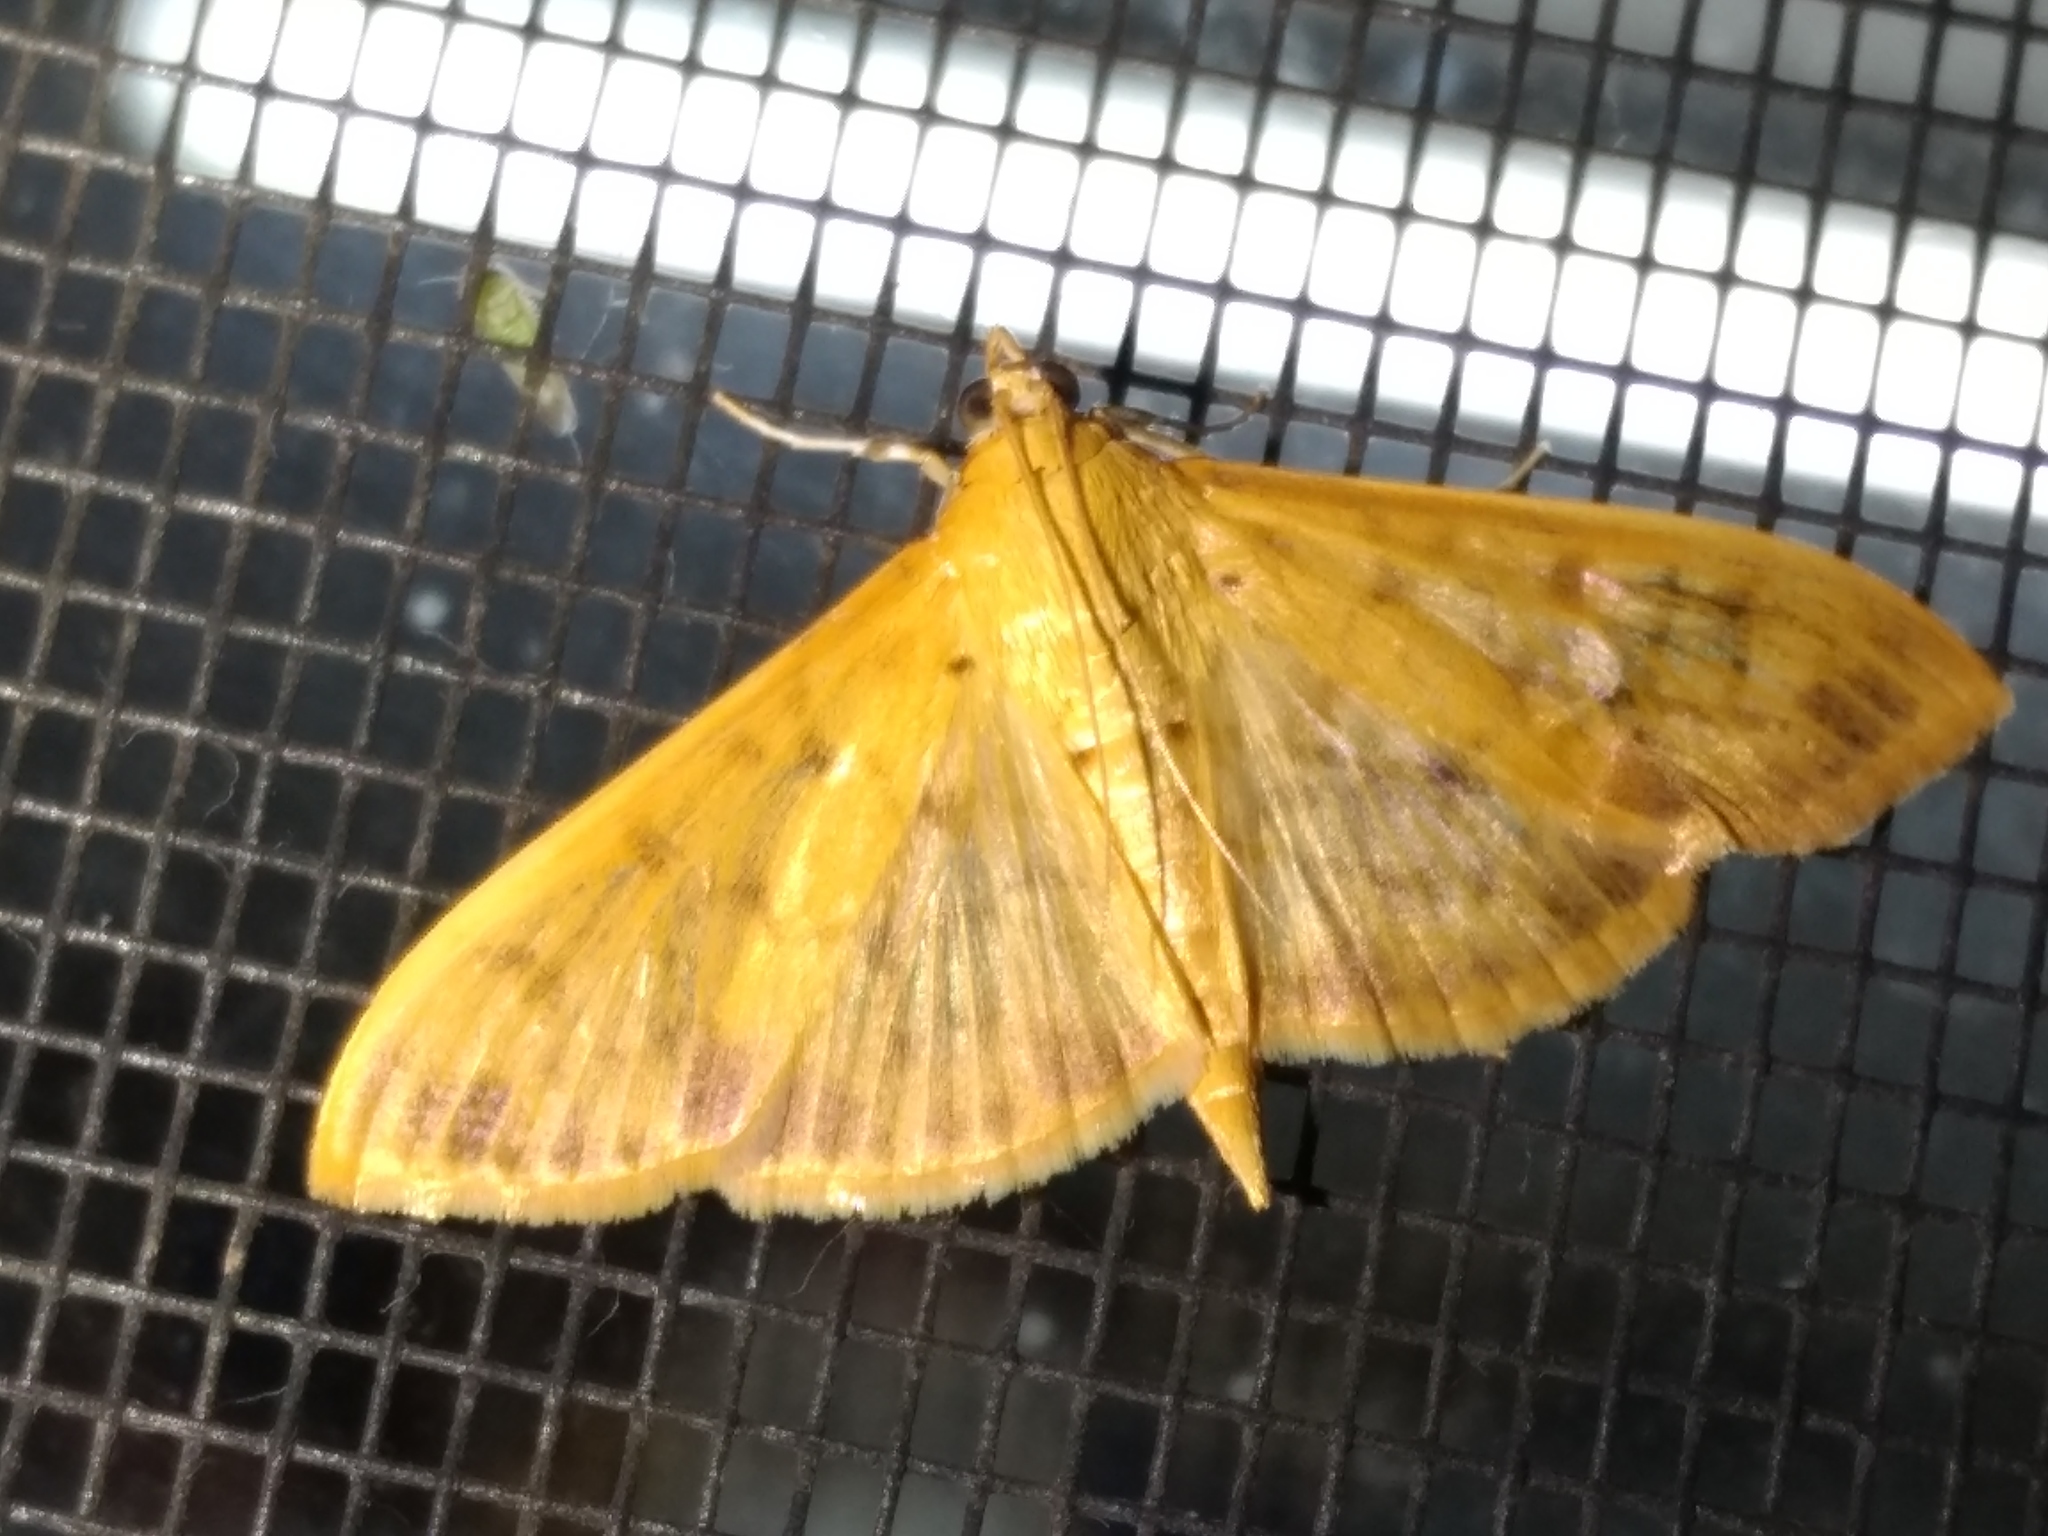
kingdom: Animalia
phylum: Arthropoda
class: Insecta
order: Lepidoptera
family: Crambidae
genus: Pleuroptya
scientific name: Pleuroptya balteata
